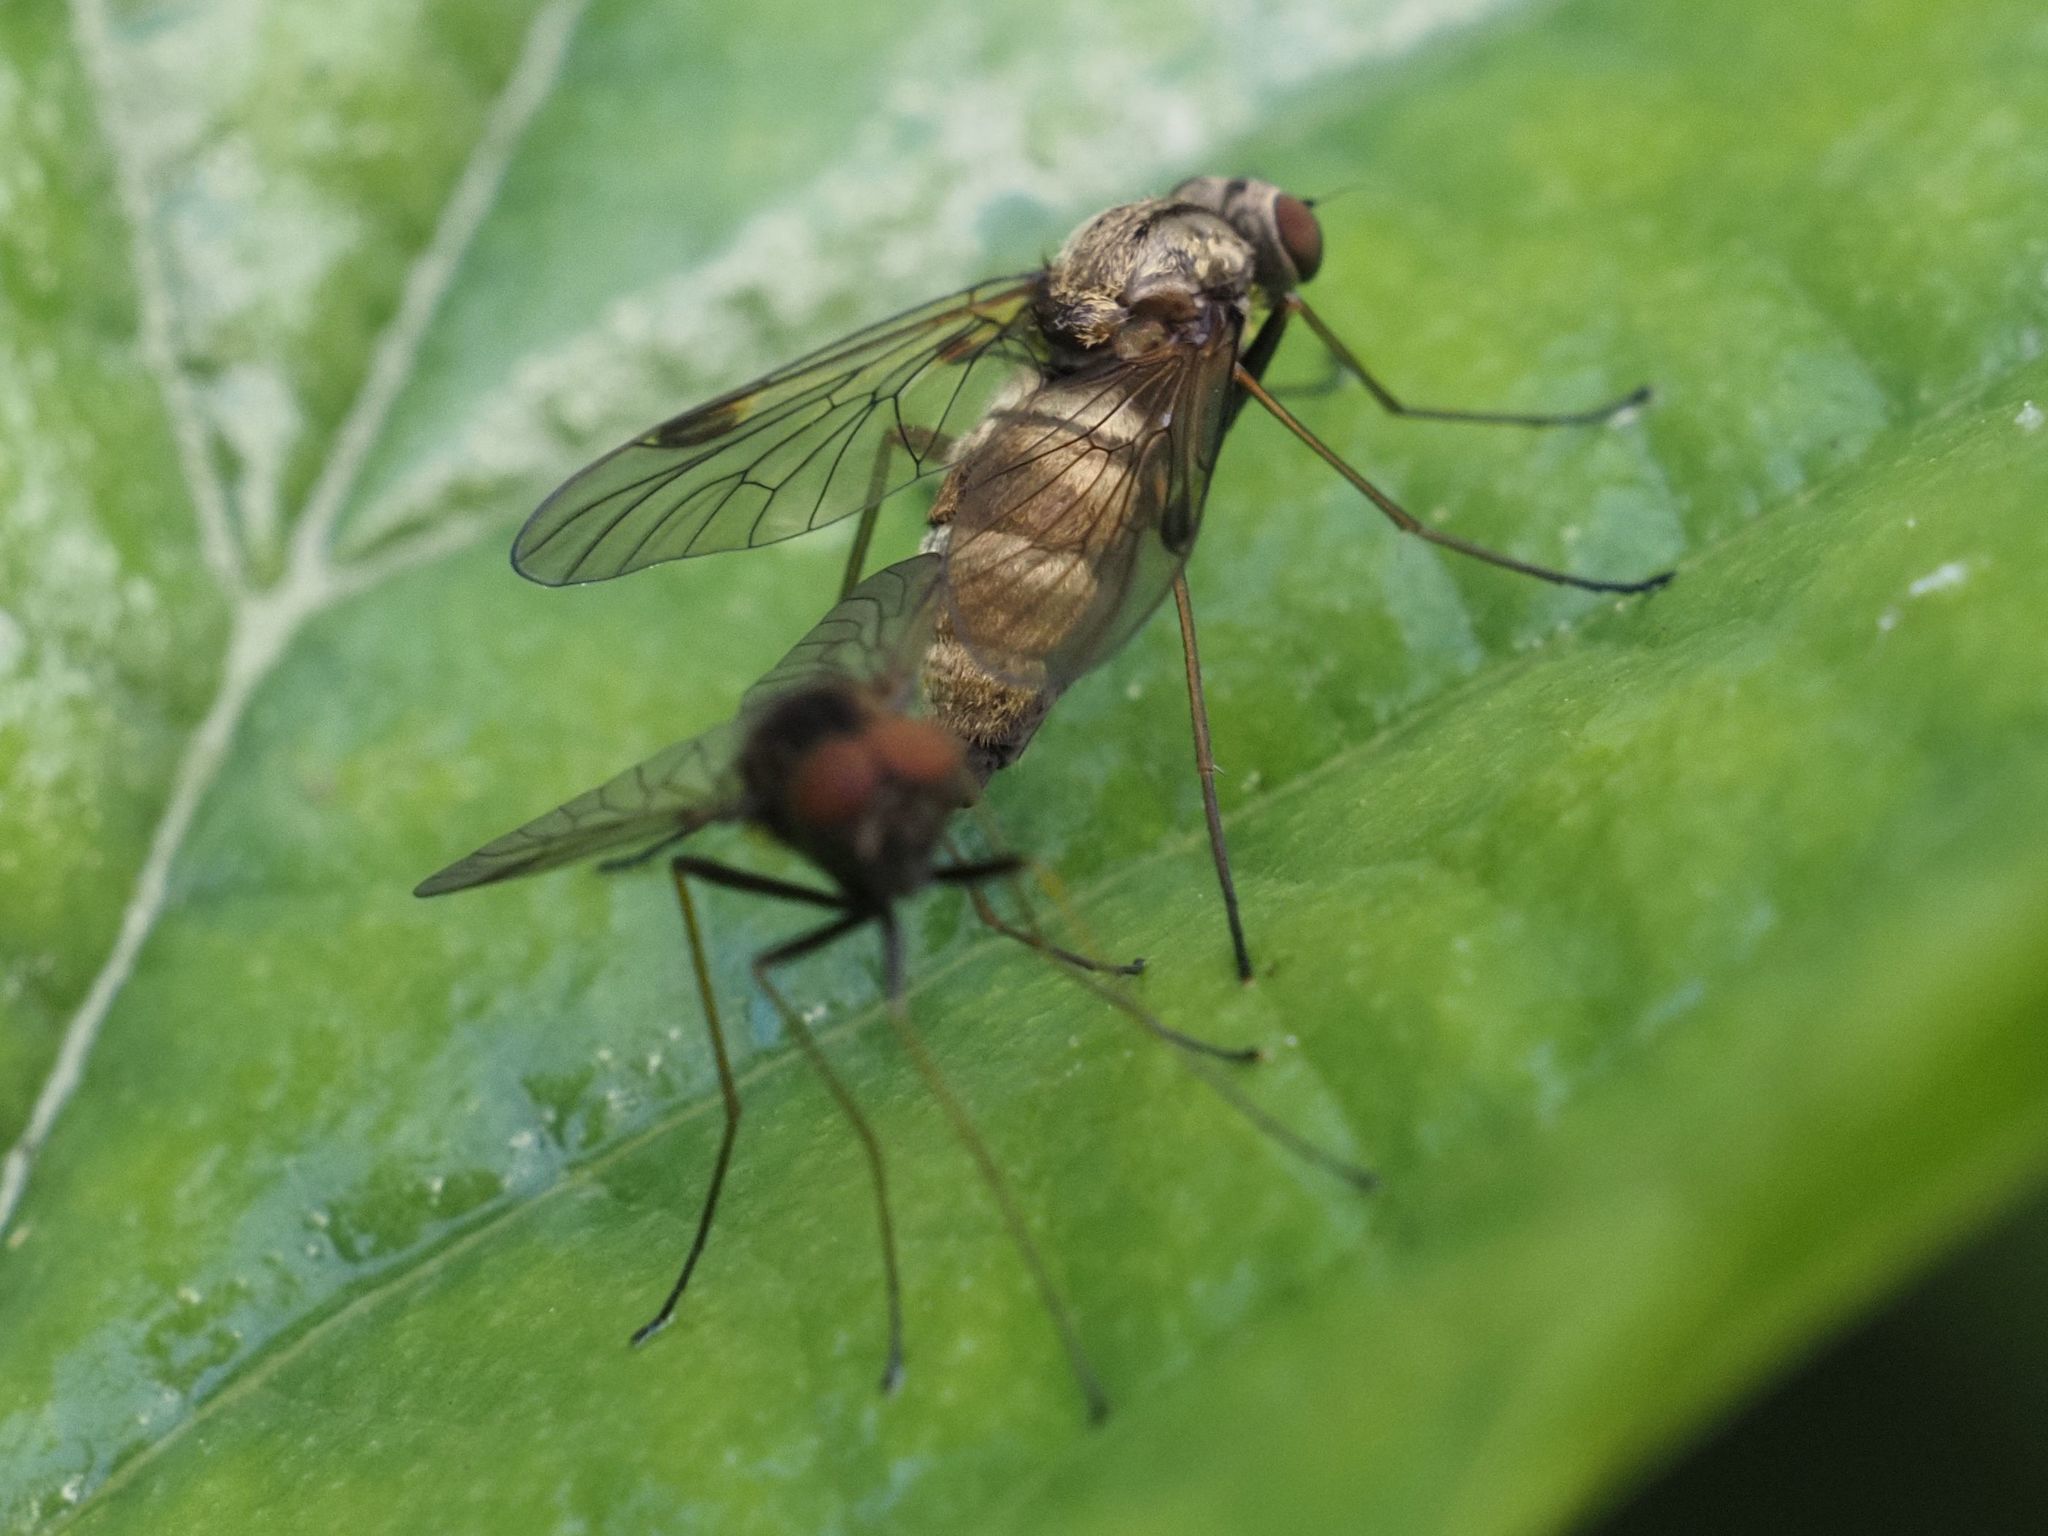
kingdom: Animalia
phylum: Arthropoda
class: Insecta
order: Diptera
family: Rhagionidae
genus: Chrysopilus
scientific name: Chrysopilus cristatus
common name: Black snipefly
